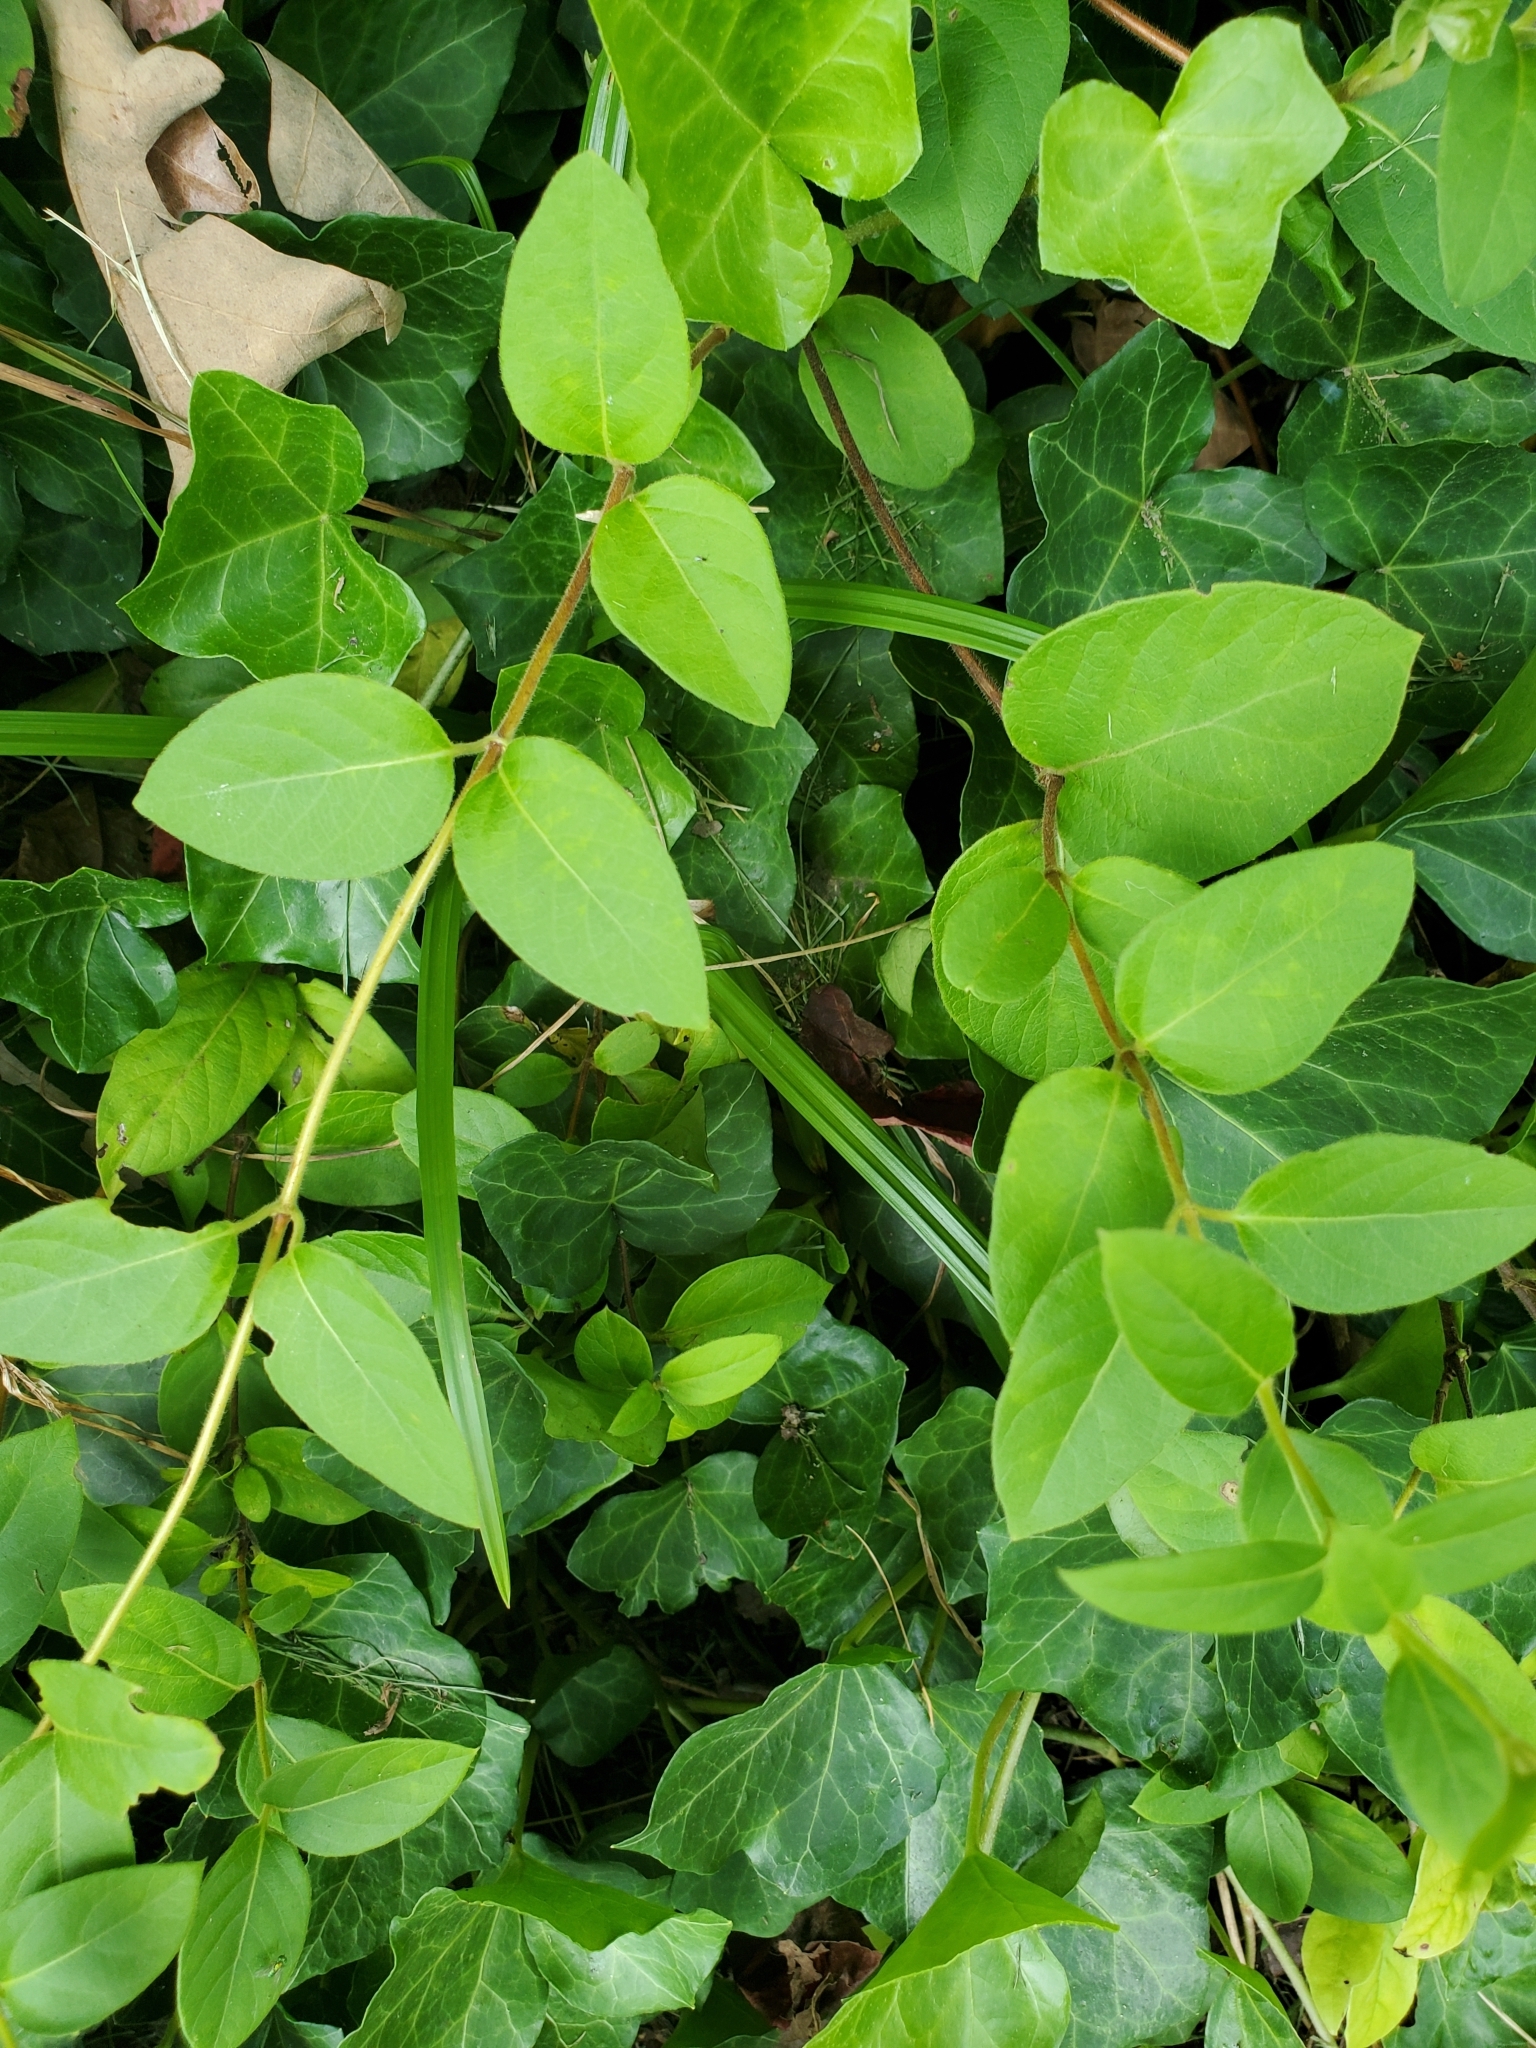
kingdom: Plantae
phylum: Tracheophyta
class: Magnoliopsida
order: Dipsacales
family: Caprifoliaceae
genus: Lonicera
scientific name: Lonicera japonica
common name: Japanese honeysuckle
